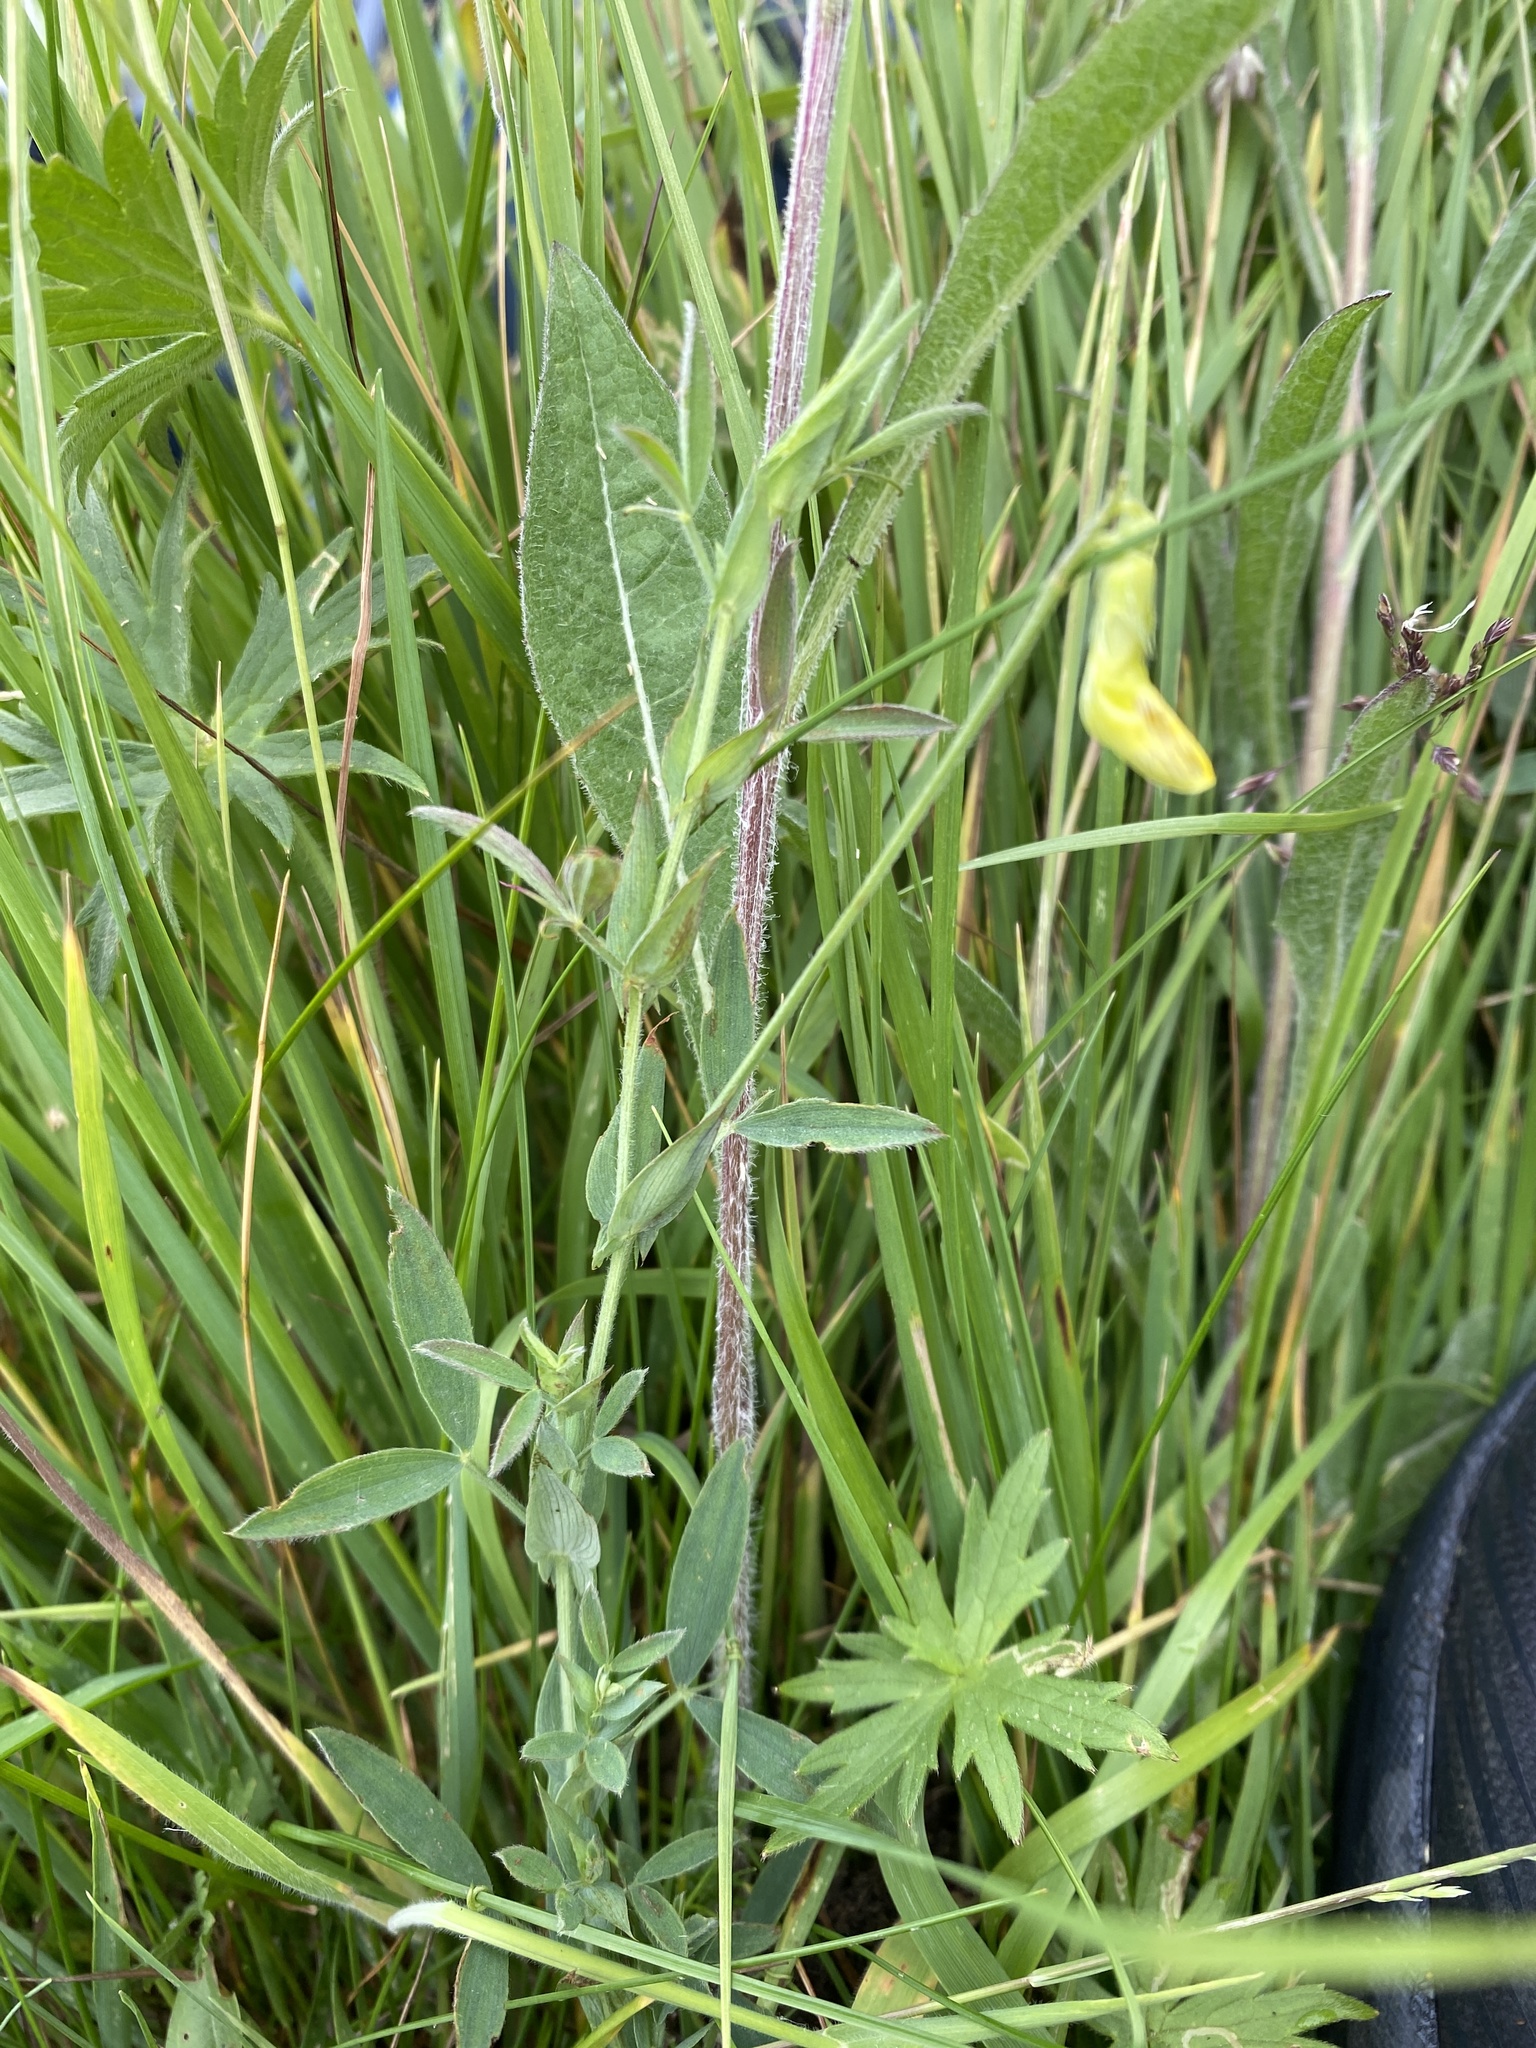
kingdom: Plantae
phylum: Tracheophyta
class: Magnoliopsida
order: Fabales
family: Fabaceae
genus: Lathyrus
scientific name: Lathyrus pratensis
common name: Meadow vetchling
